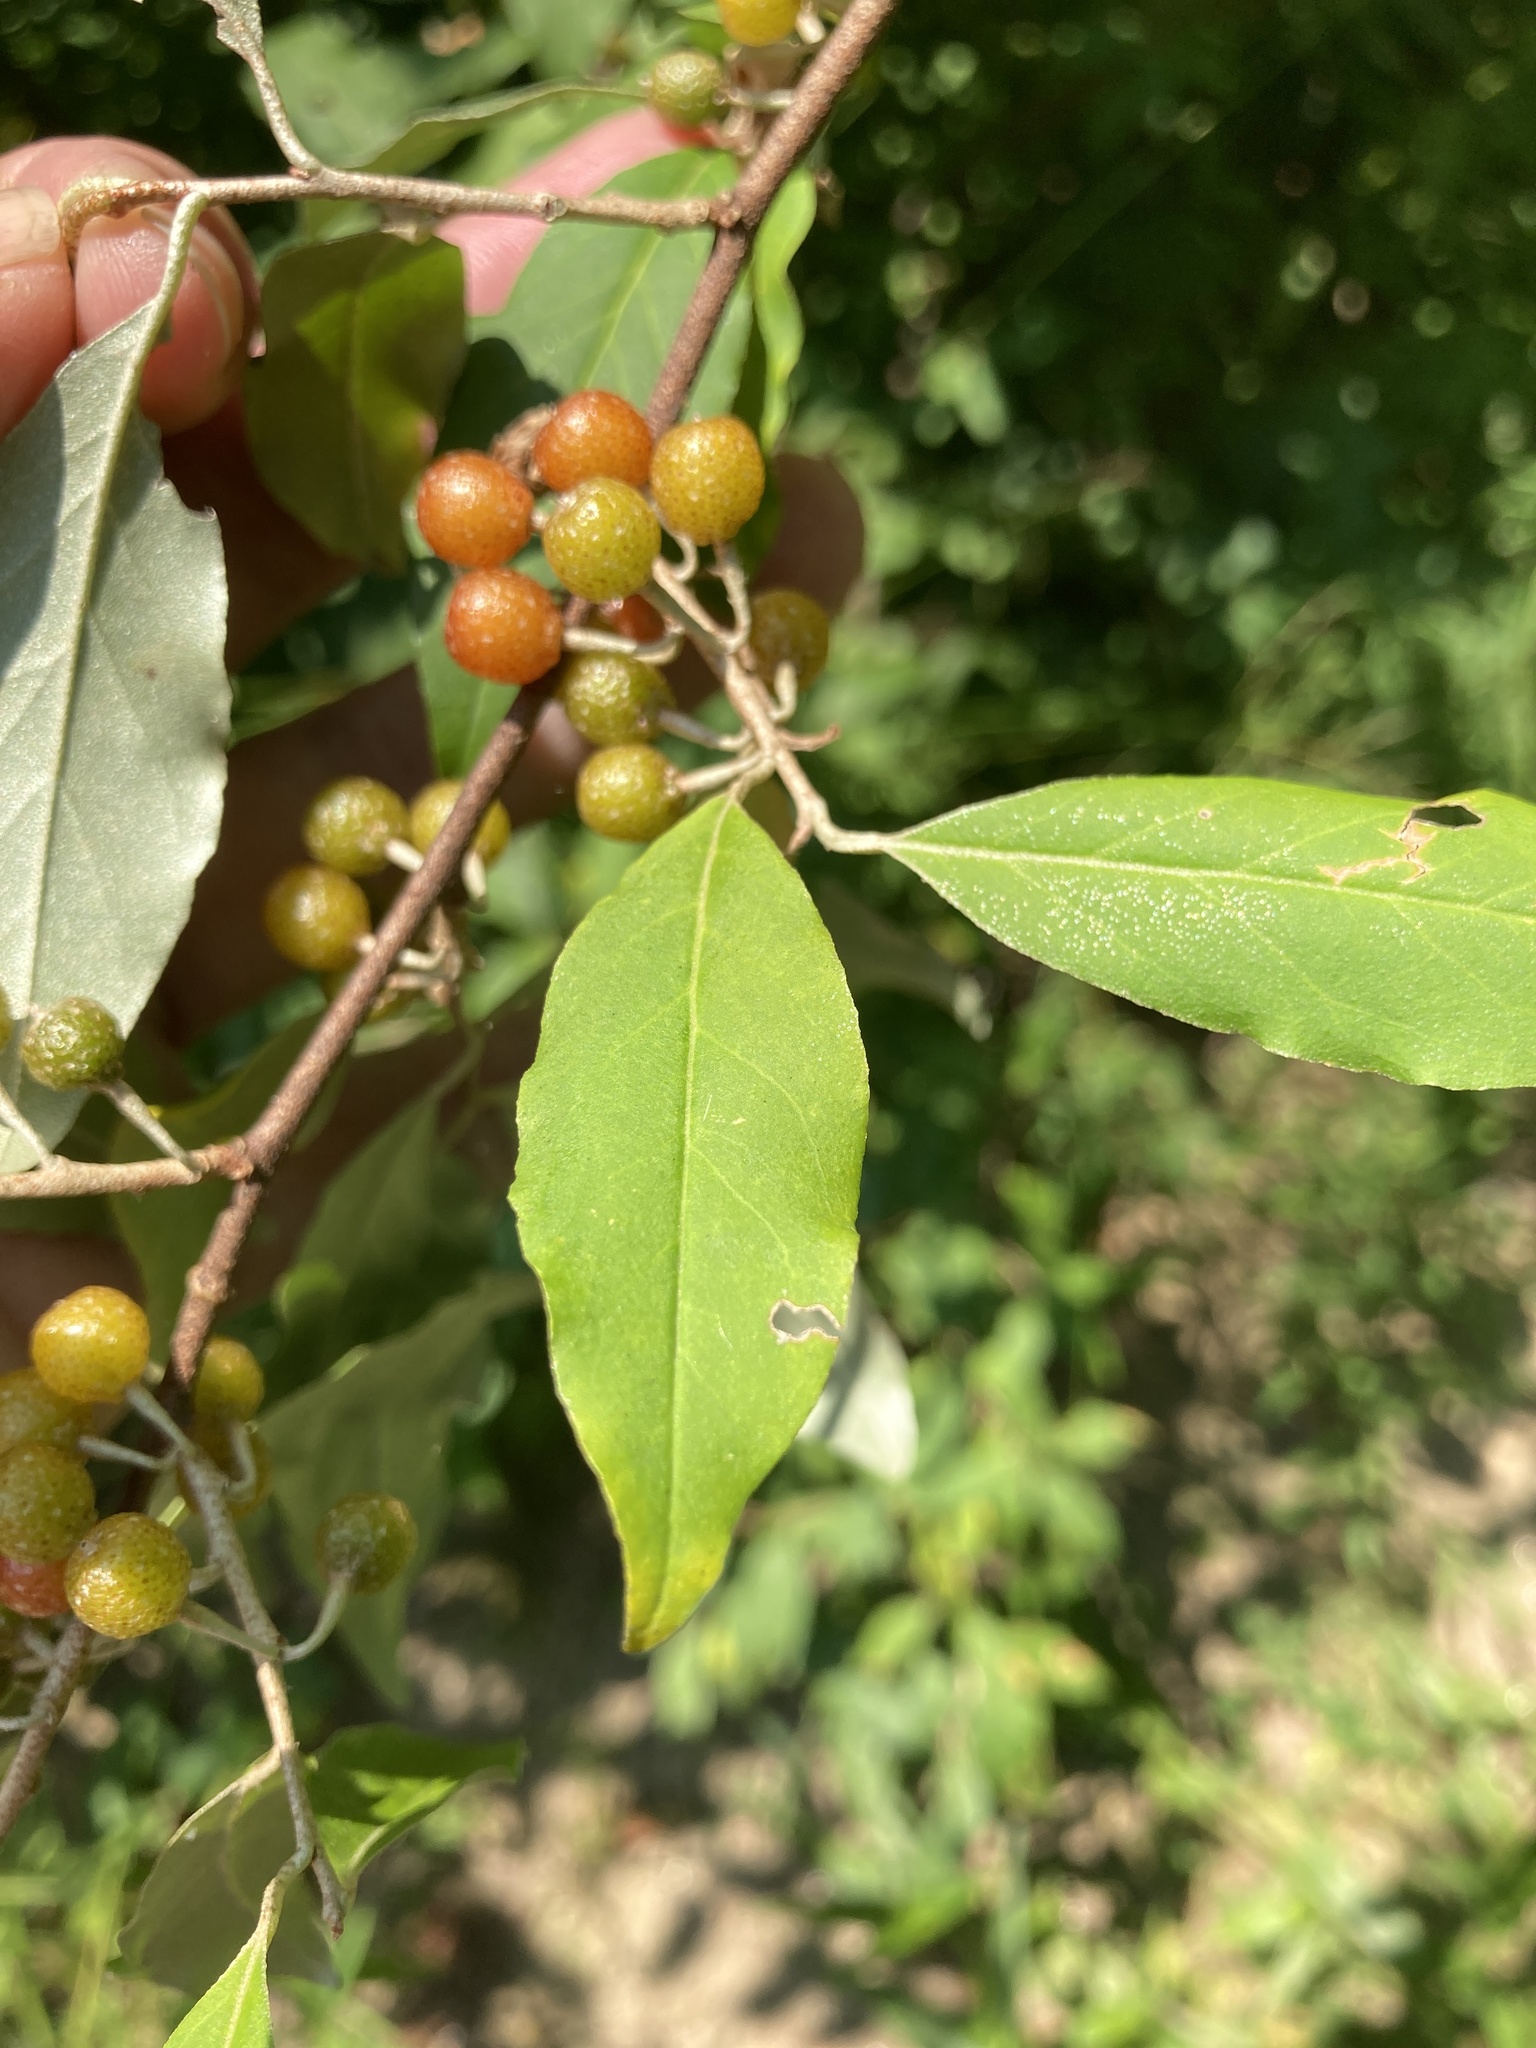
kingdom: Plantae
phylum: Tracheophyta
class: Magnoliopsida
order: Rosales
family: Elaeagnaceae
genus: Elaeagnus
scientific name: Elaeagnus umbellata
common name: Autumn olive
